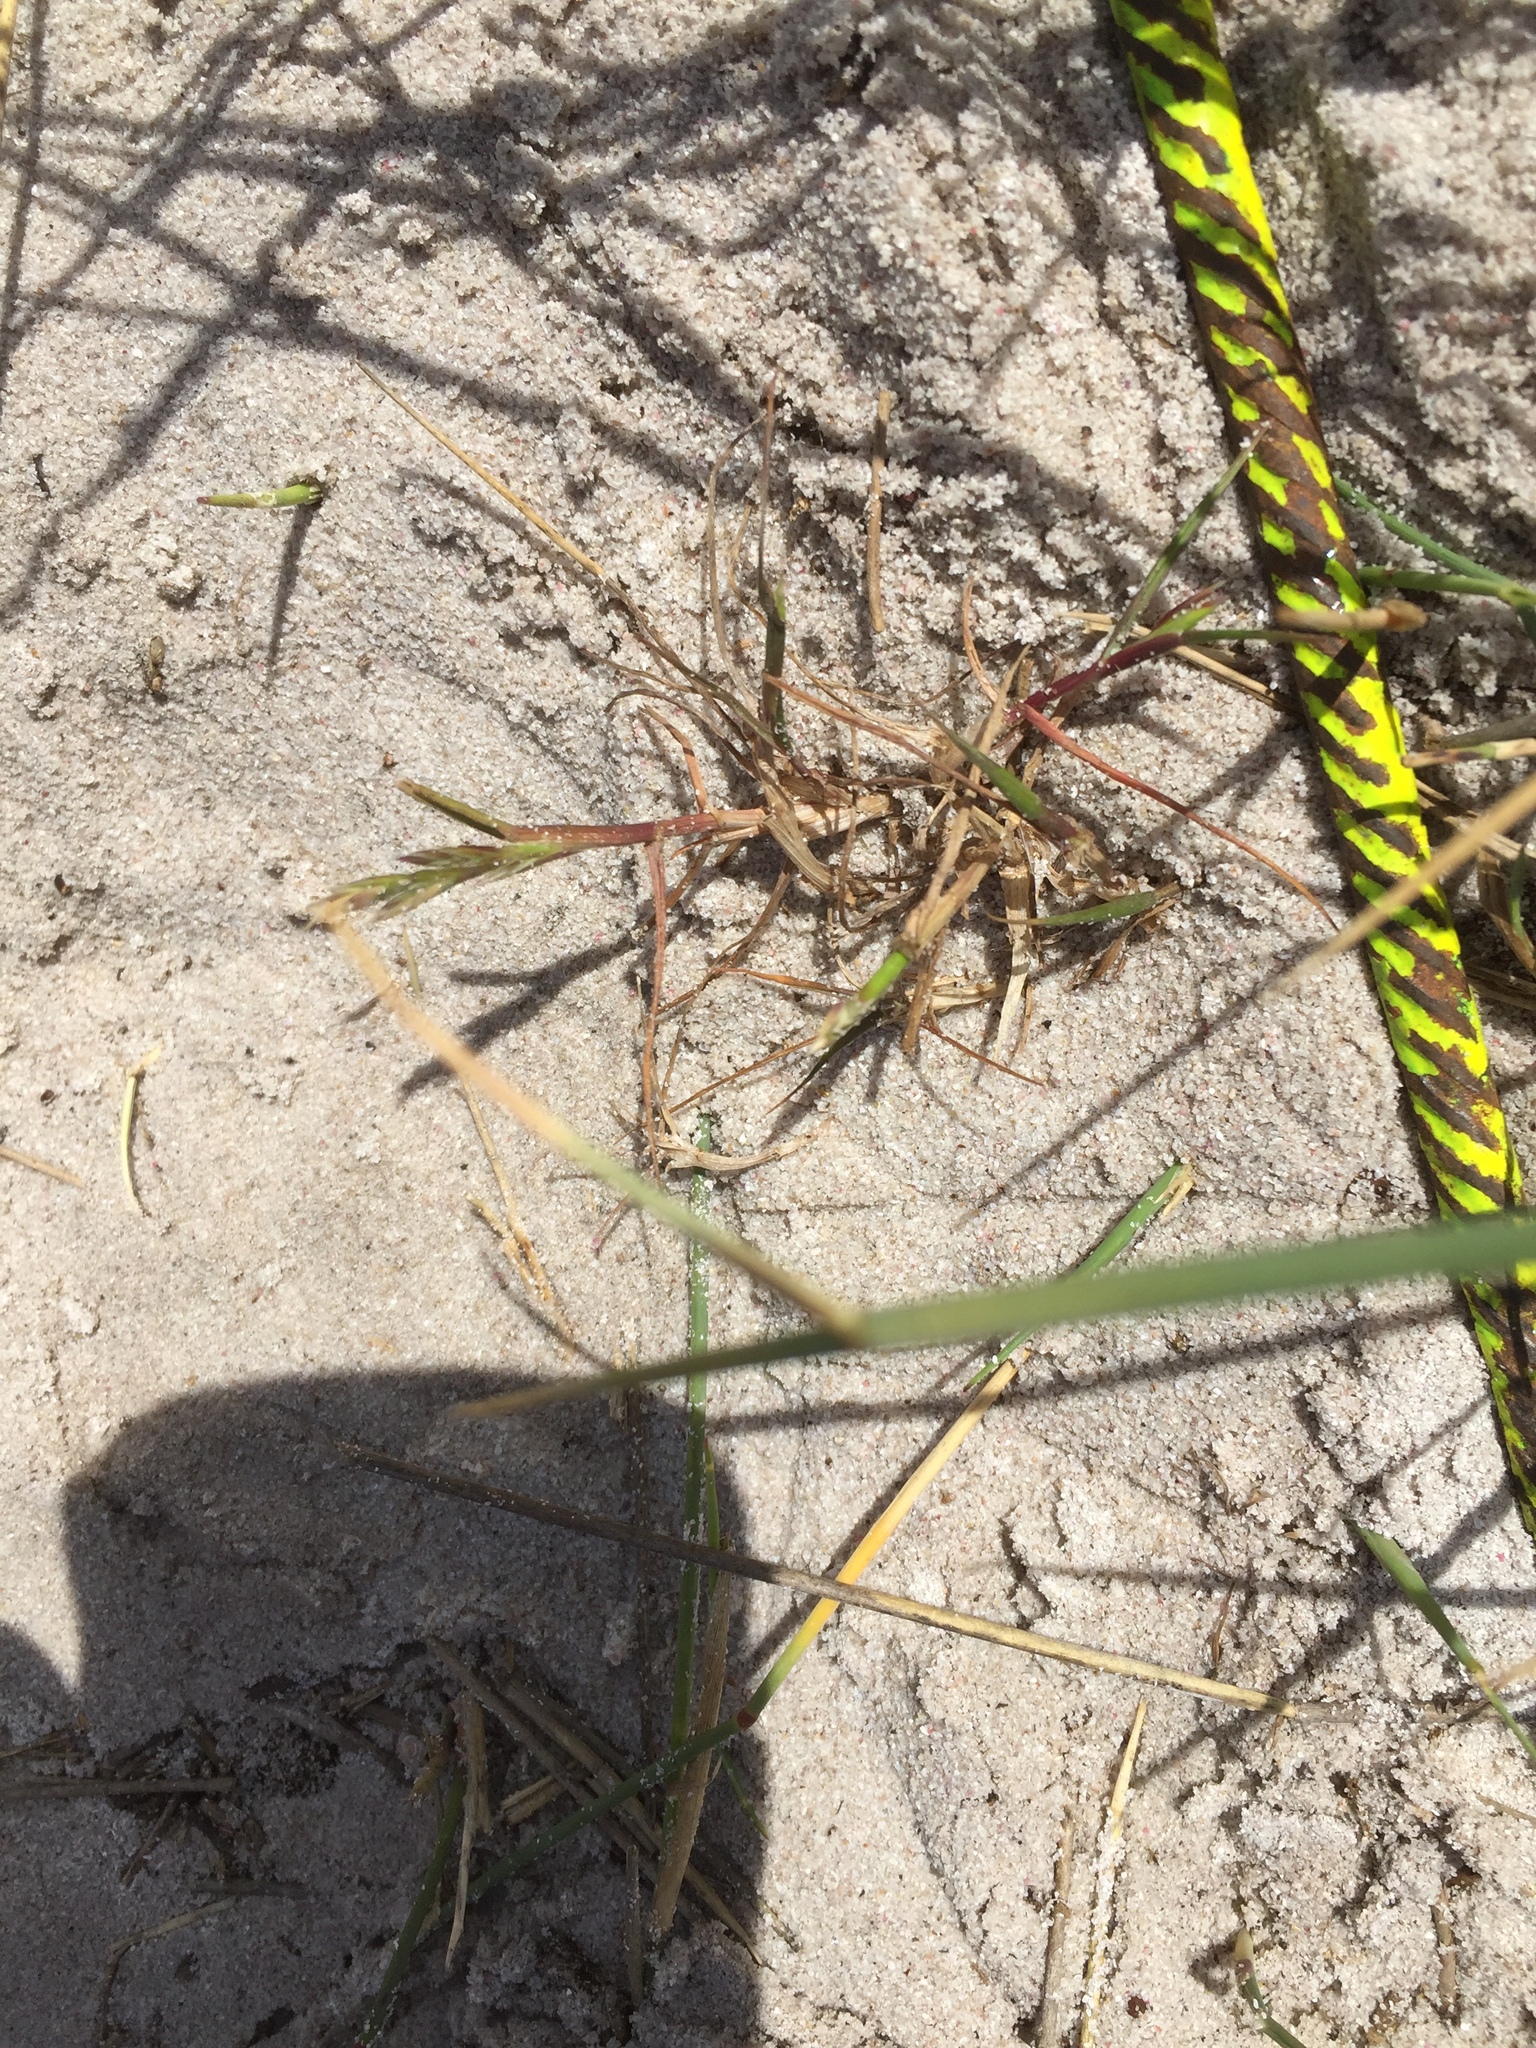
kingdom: Plantae
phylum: Tracheophyta
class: Liliopsida
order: Poales
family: Poaceae
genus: Lolium
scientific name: Lolium
